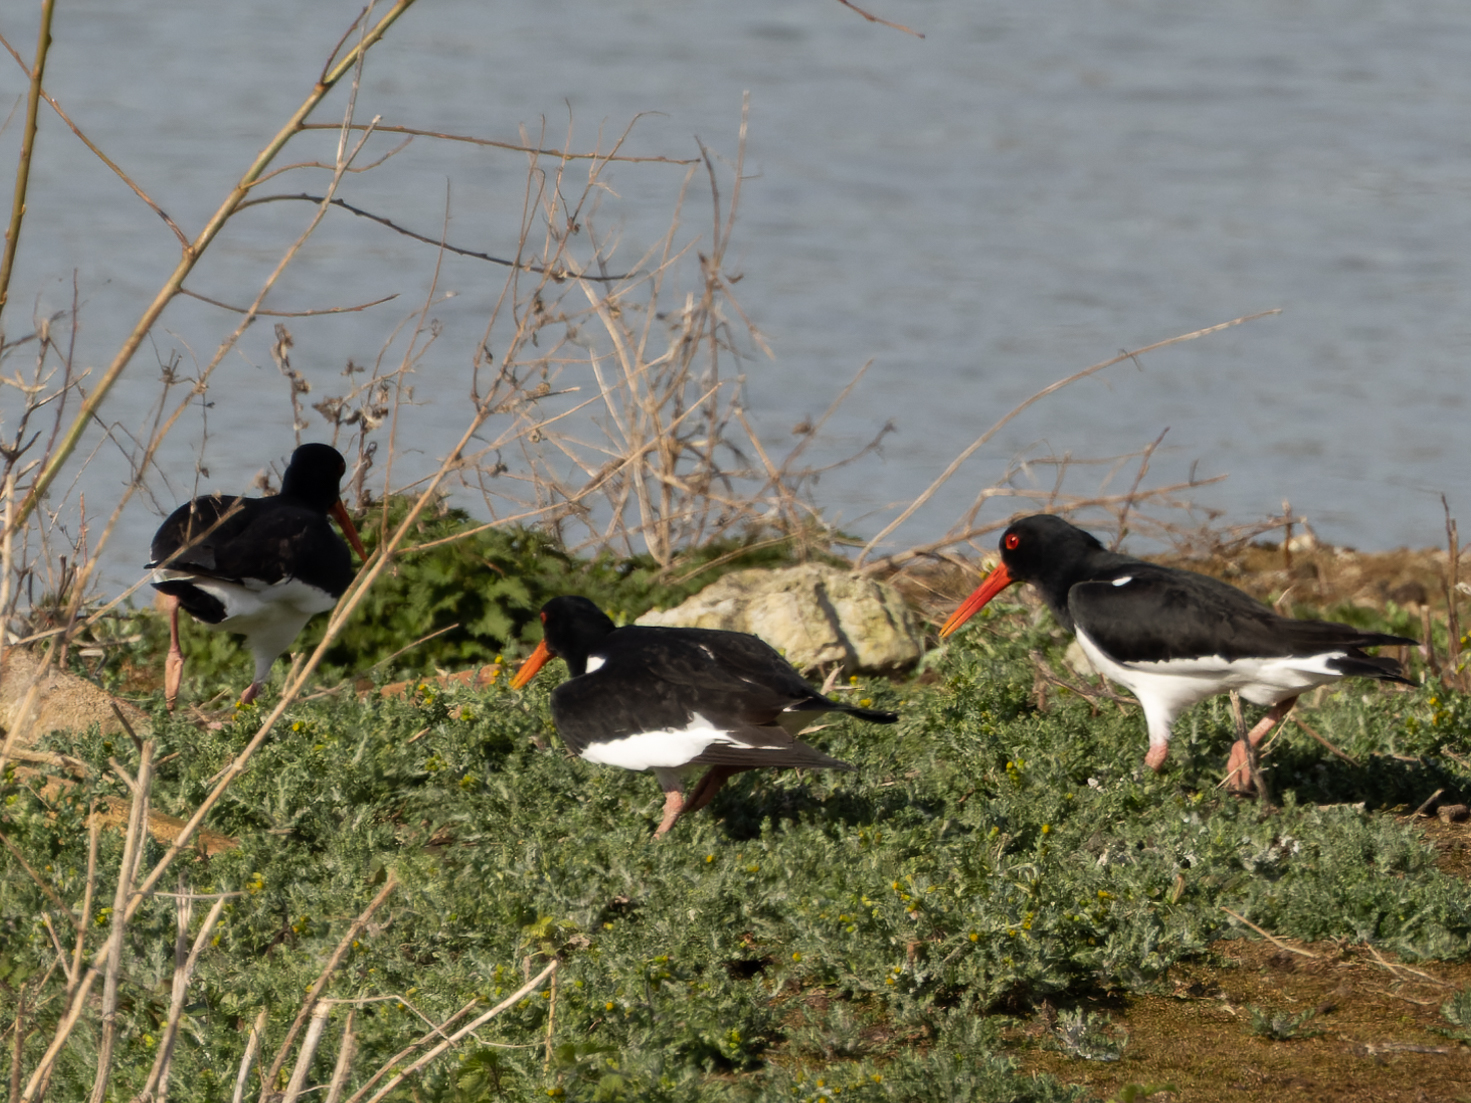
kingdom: Animalia
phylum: Chordata
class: Aves
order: Charadriiformes
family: Haematopodidae
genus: Haematopus
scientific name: Haematopus ostralegus
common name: Eurasian oystercatcher
